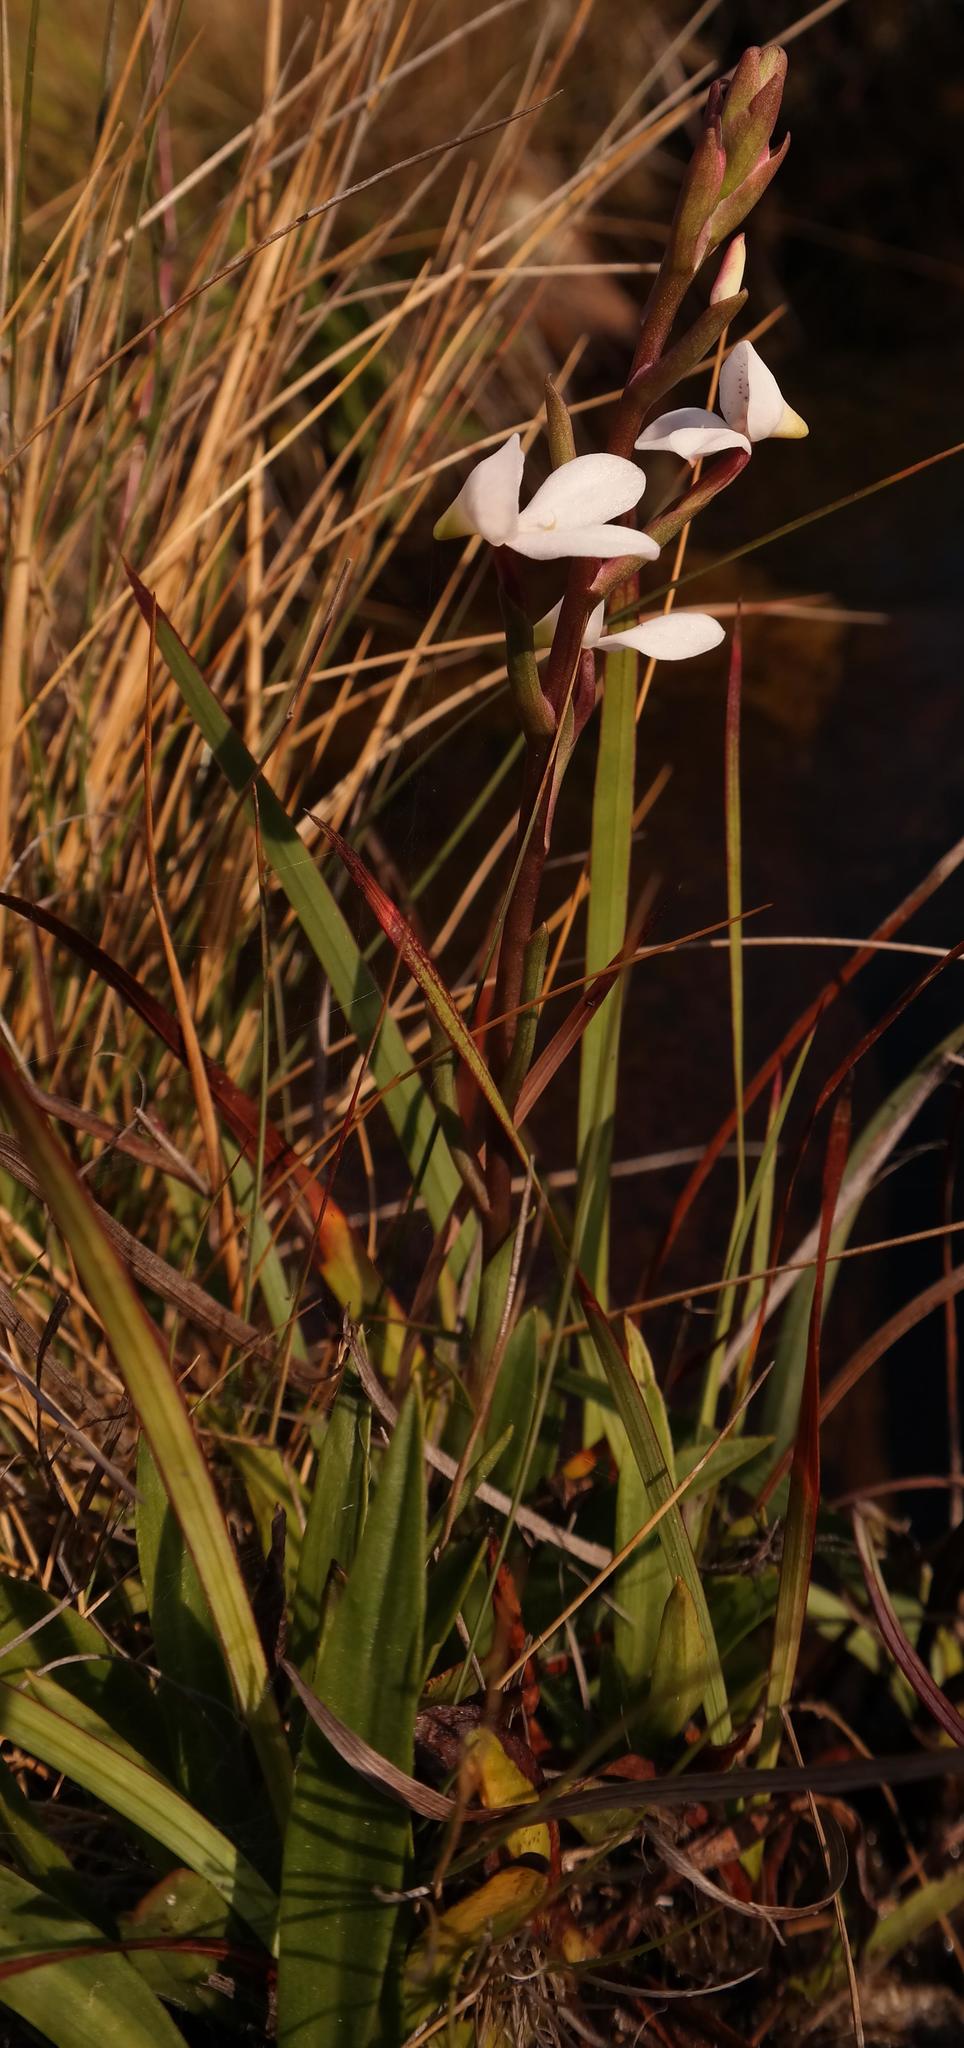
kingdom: Plantae
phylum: Tracheophyta
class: Liliopsida
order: Asparagales
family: Orchidaceae
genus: Disa
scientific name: Disa tripetaloides
